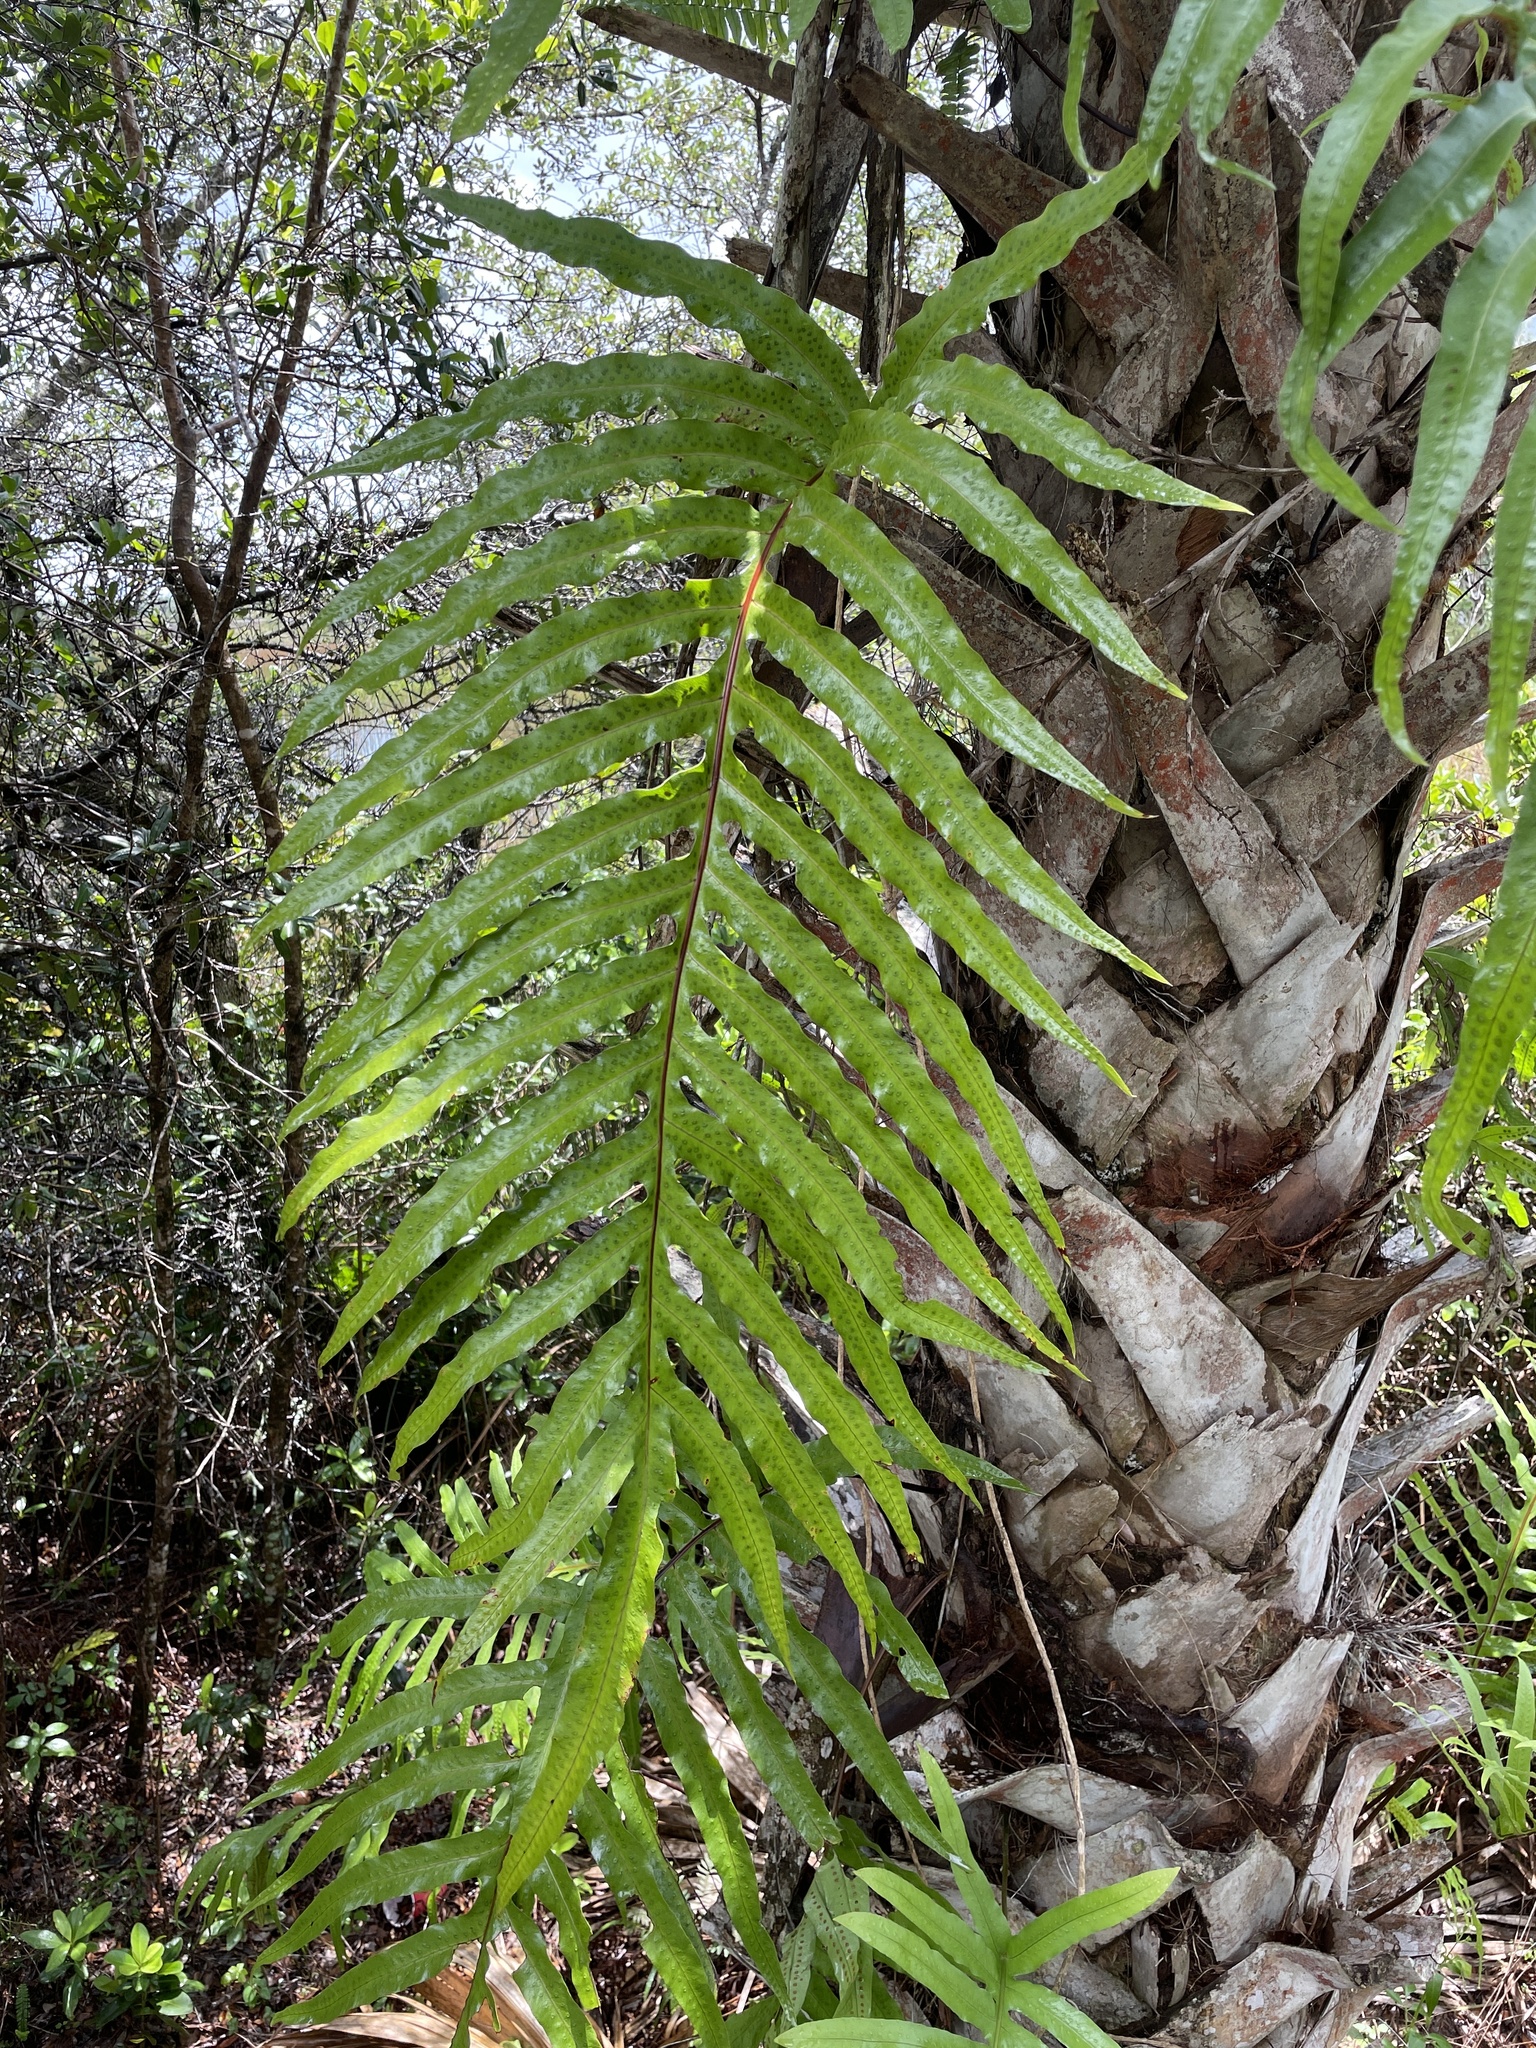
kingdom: Plantae
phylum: Tracheophyta
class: Polypodiopsida
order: Polypodiales
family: Polypodiaceae
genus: Phlebodium
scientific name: Phlebodium aureum
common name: Gold-foot fern
